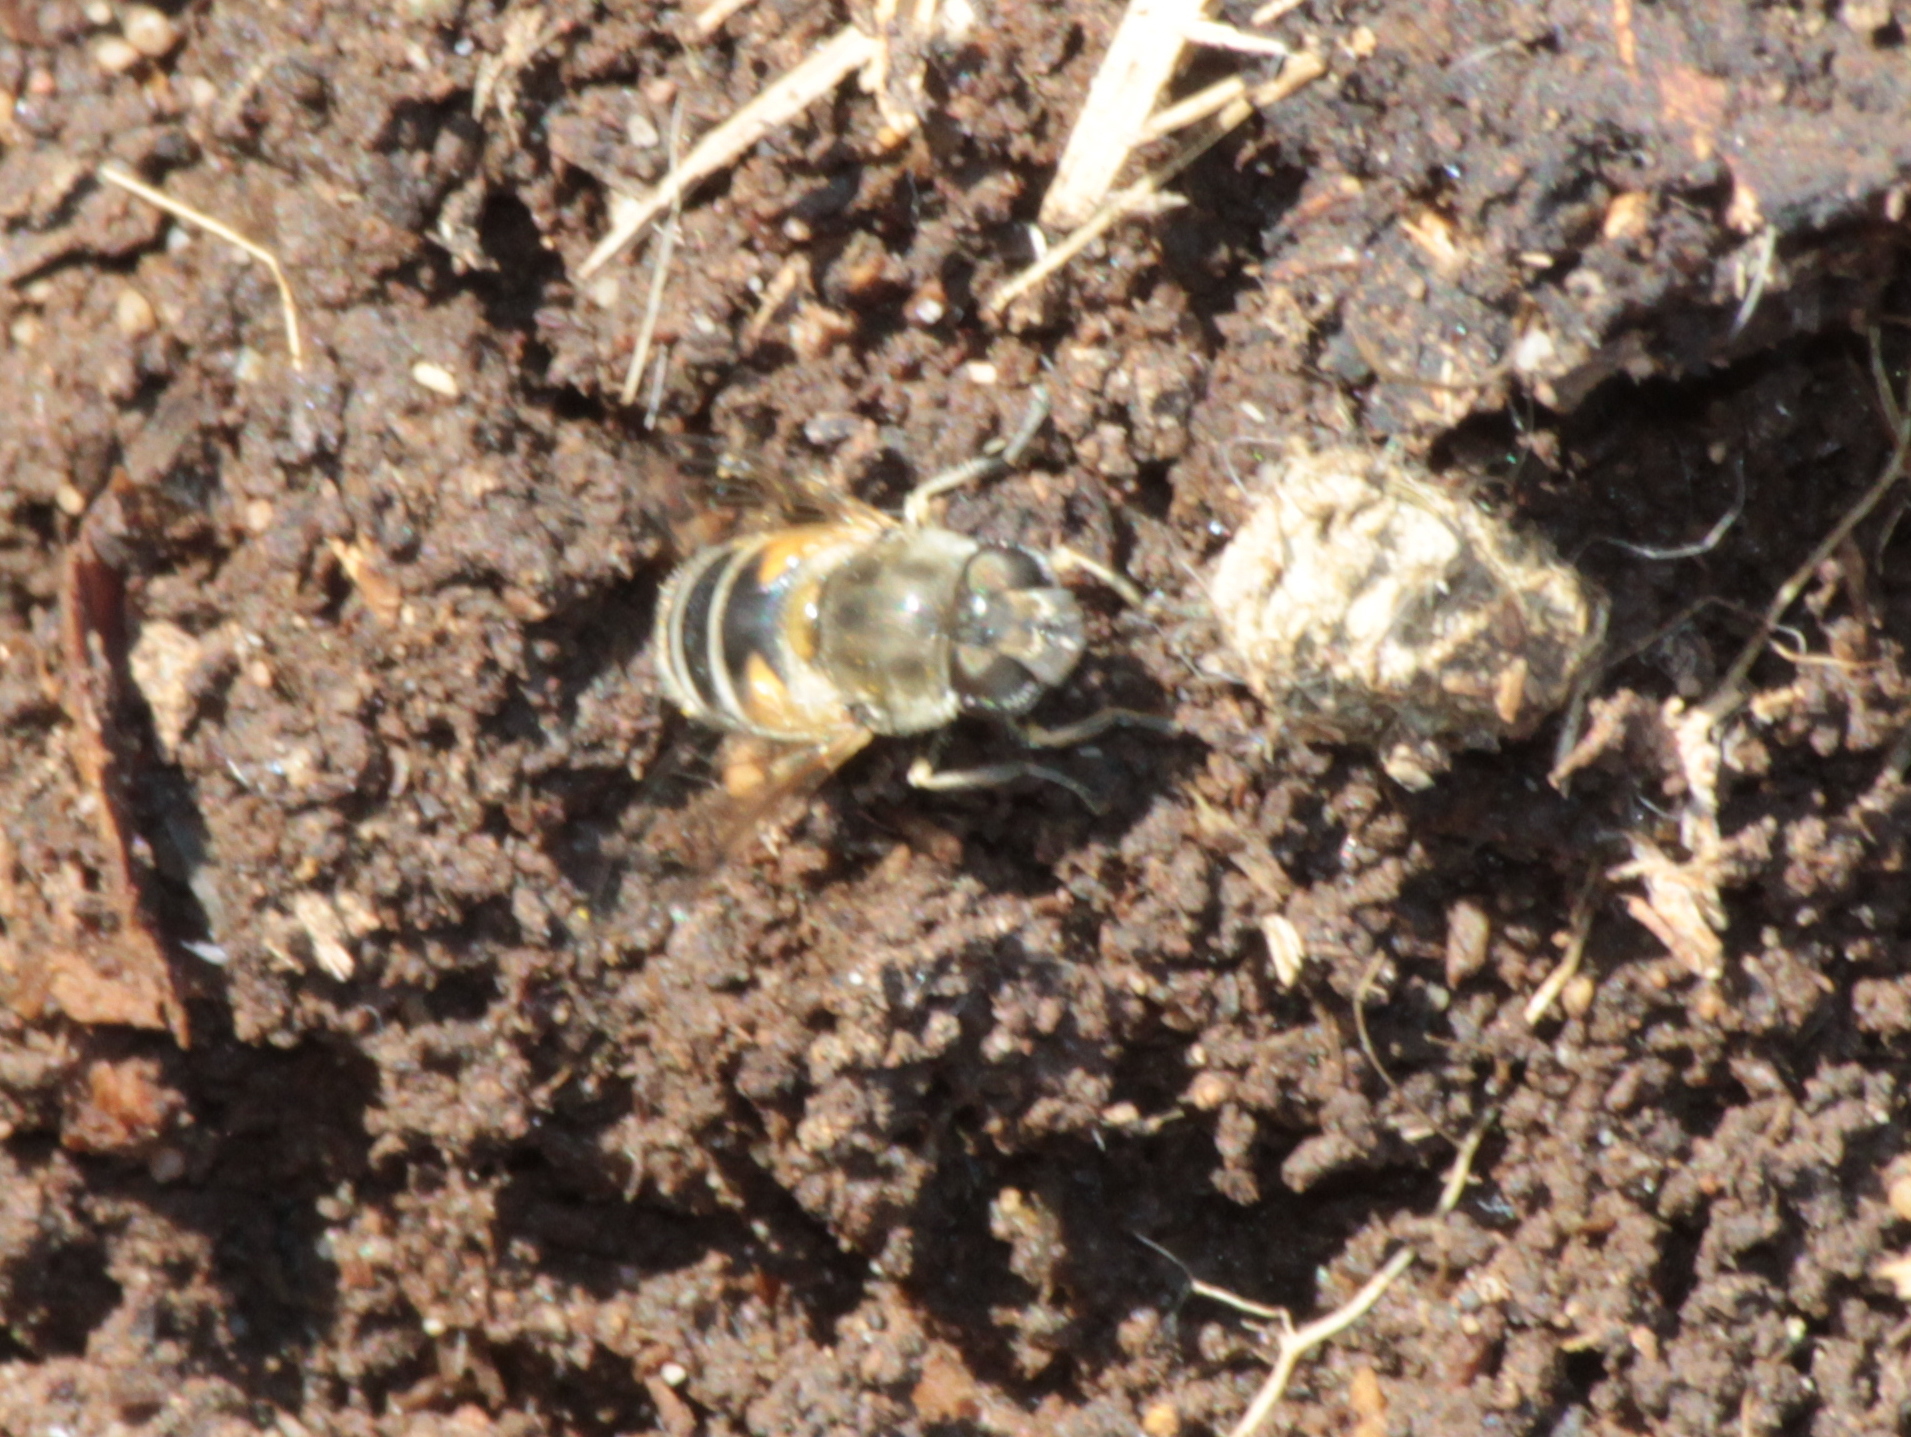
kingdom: Animalia
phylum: Arthropoda
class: Insecta
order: Diptera
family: Syrphidae
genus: Eristalis
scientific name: Eristalis arbustorum
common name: Hover fly
